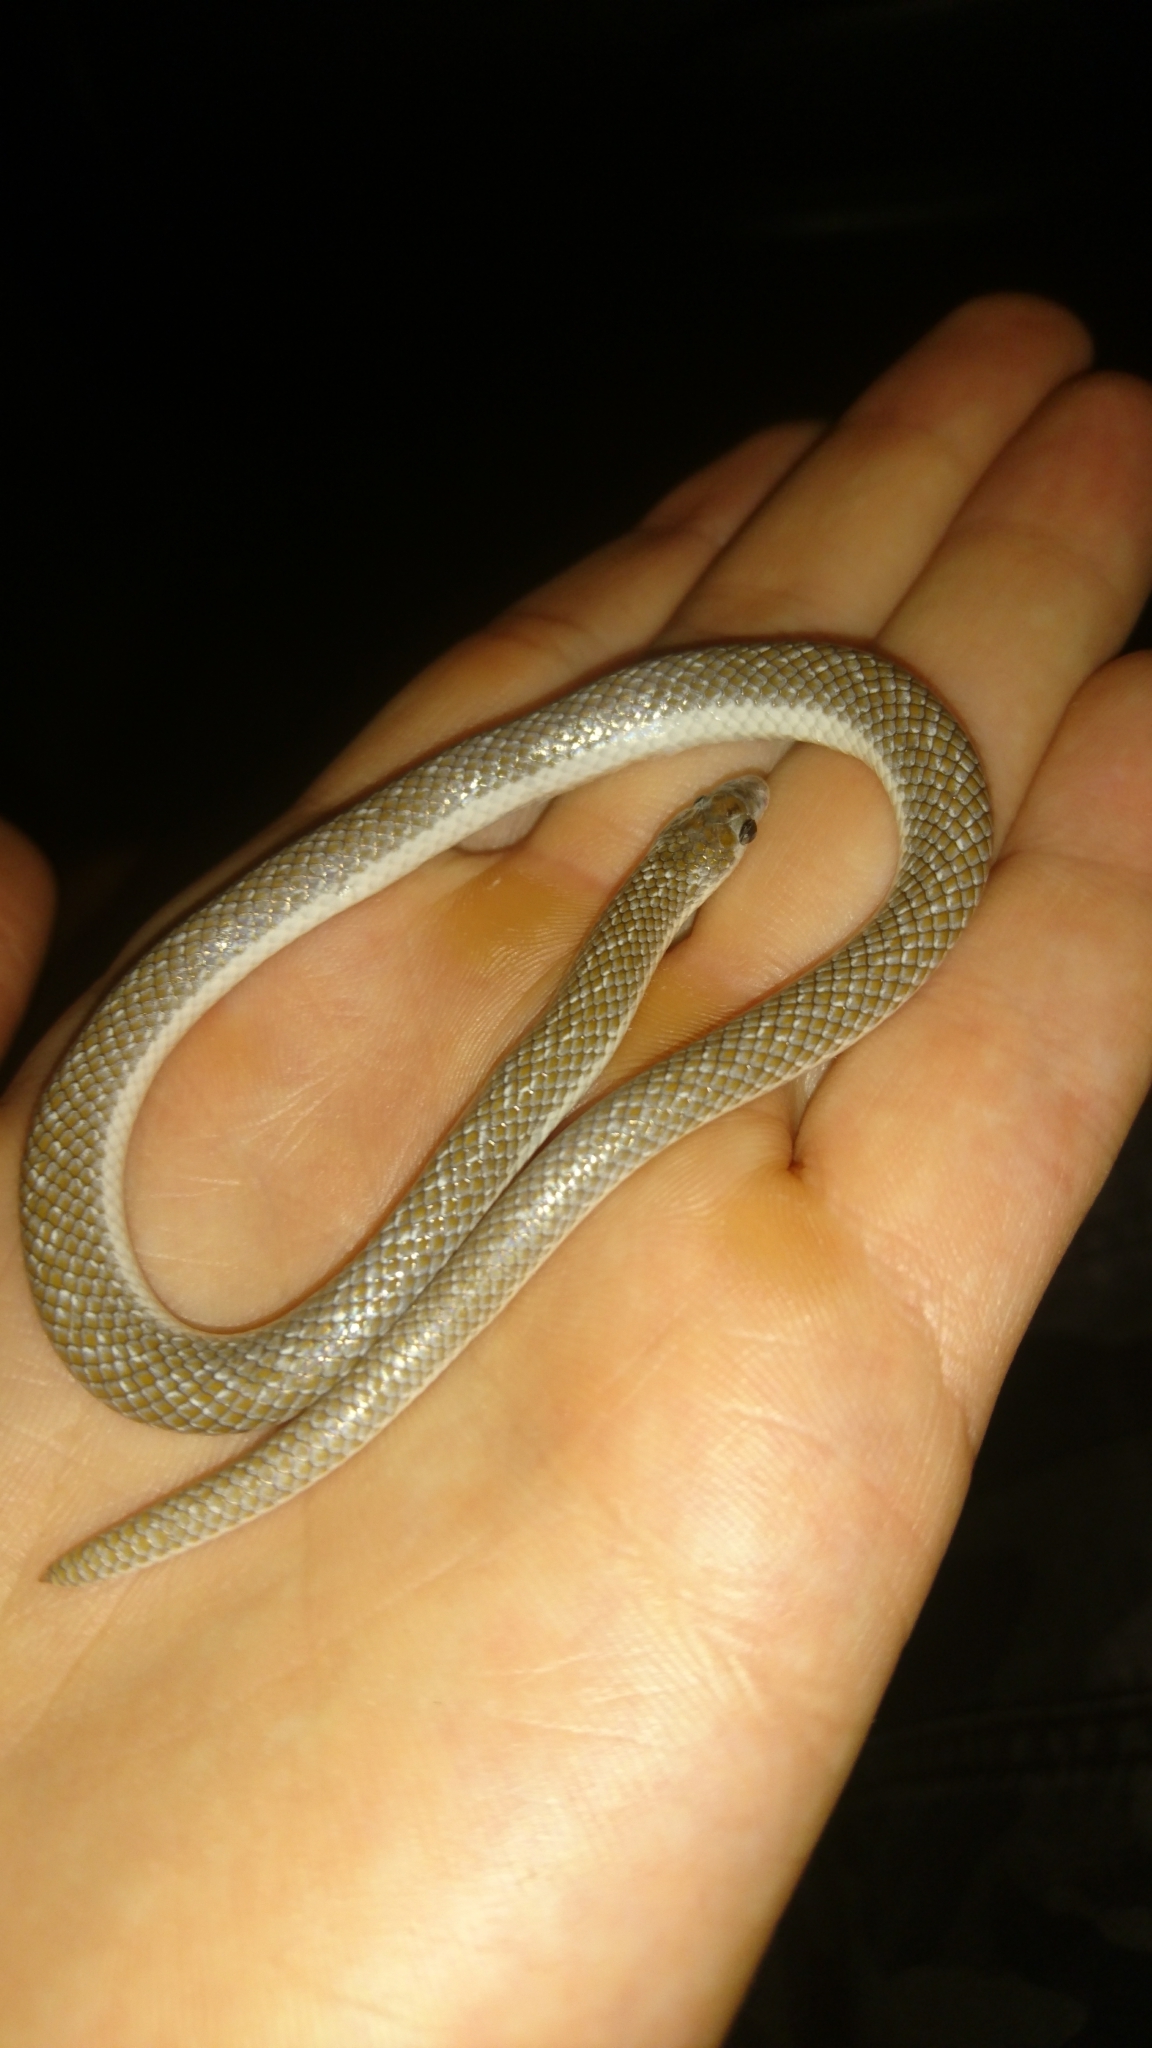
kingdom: Animalia
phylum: Chordata
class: Squamata
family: Prosymnidae
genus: Prosymna
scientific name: Prosymna lineata
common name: Lined shovel-snout
